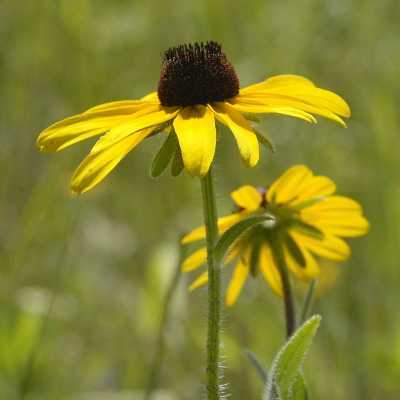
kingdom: Plantae
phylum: Tracheophyta
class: Magnoliopsida
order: Asterales
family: Asteraceae
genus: Rudbeckia
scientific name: Rudbeckia hirta
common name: Black-eyed-susan
